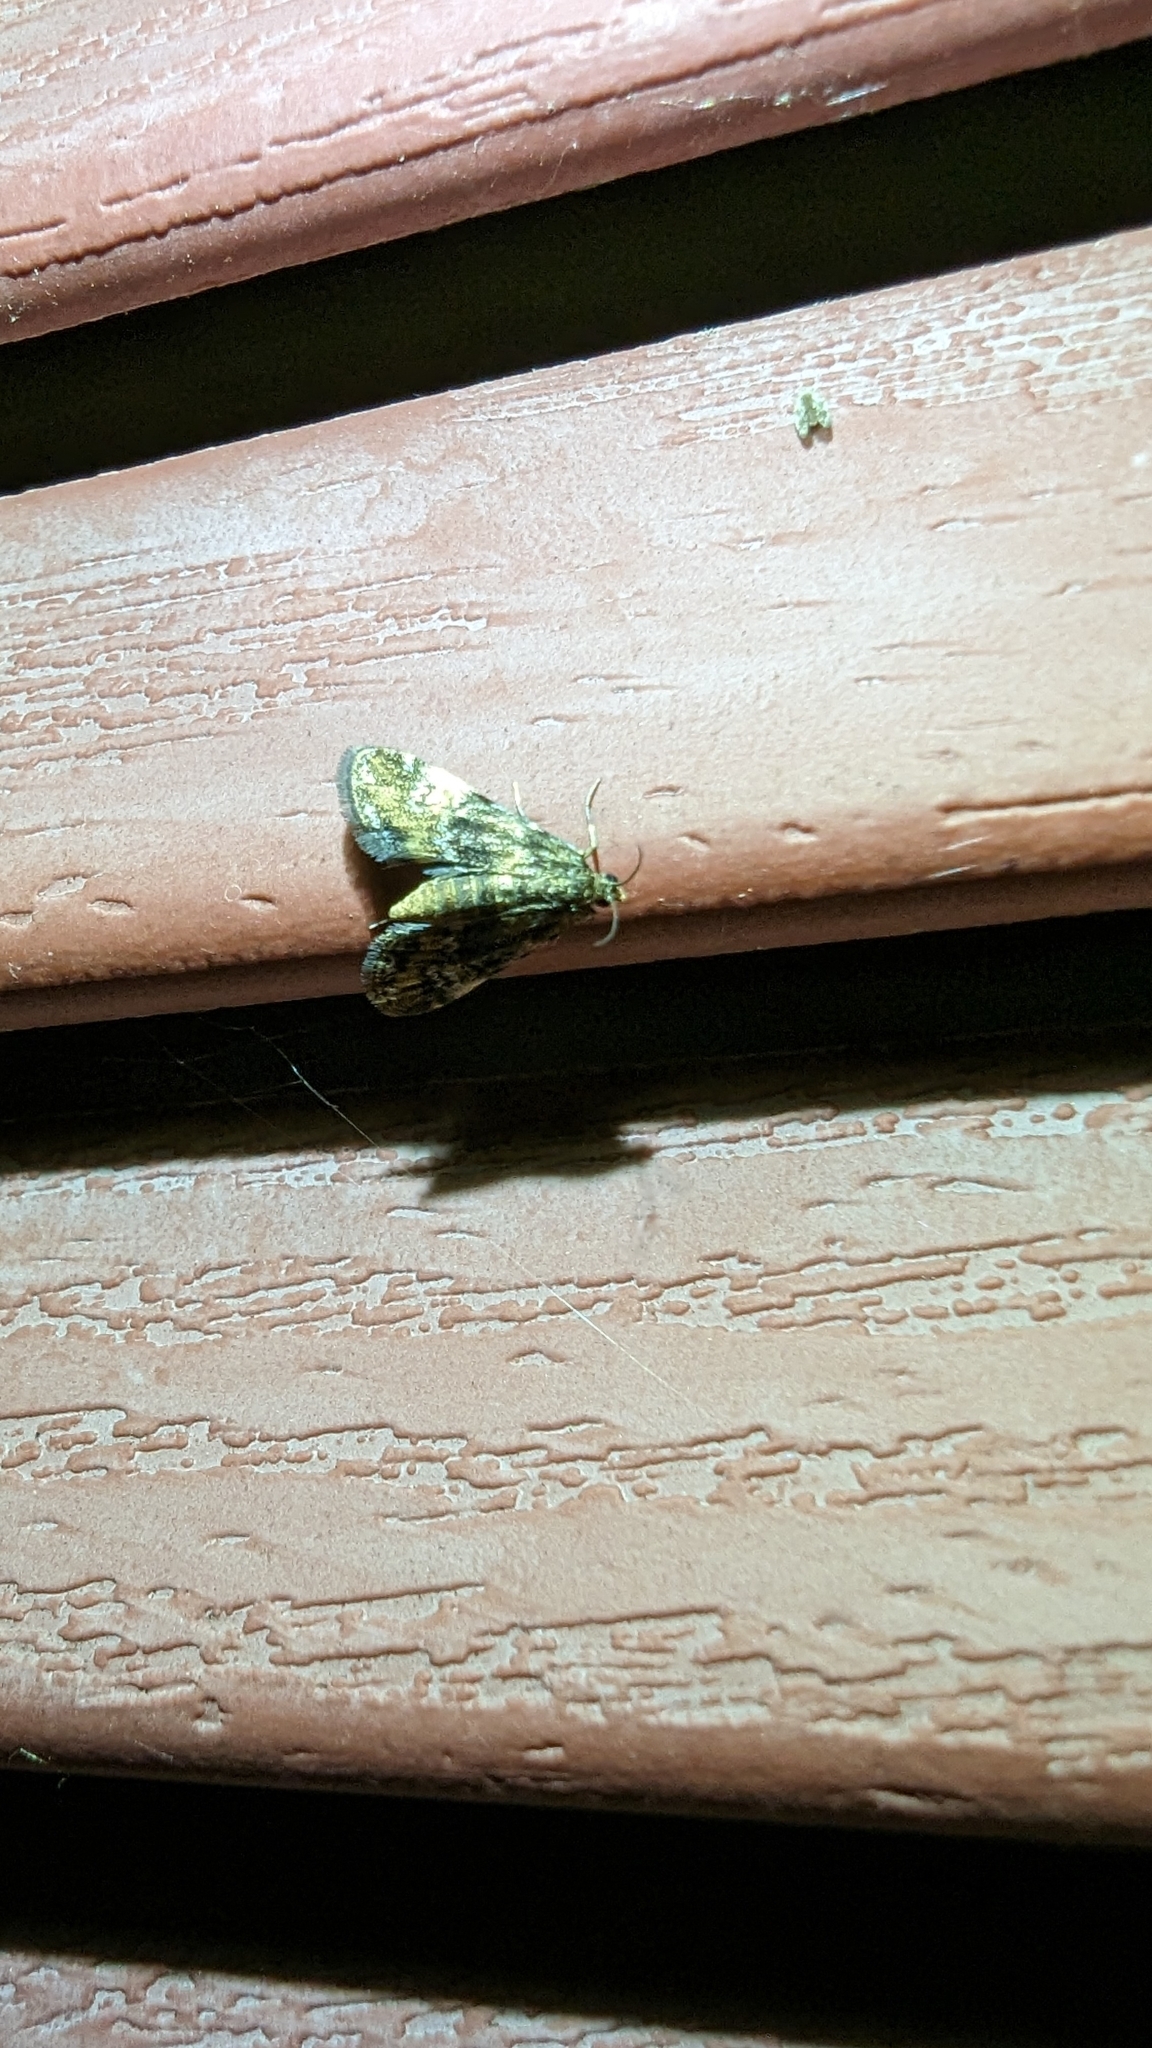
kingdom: Animalia
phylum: Arthropoda
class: Insecta
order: Lepidoptera
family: Crambidae
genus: Elophila
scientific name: Elophila obliteralis
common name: Waterlily leafcutter moth
